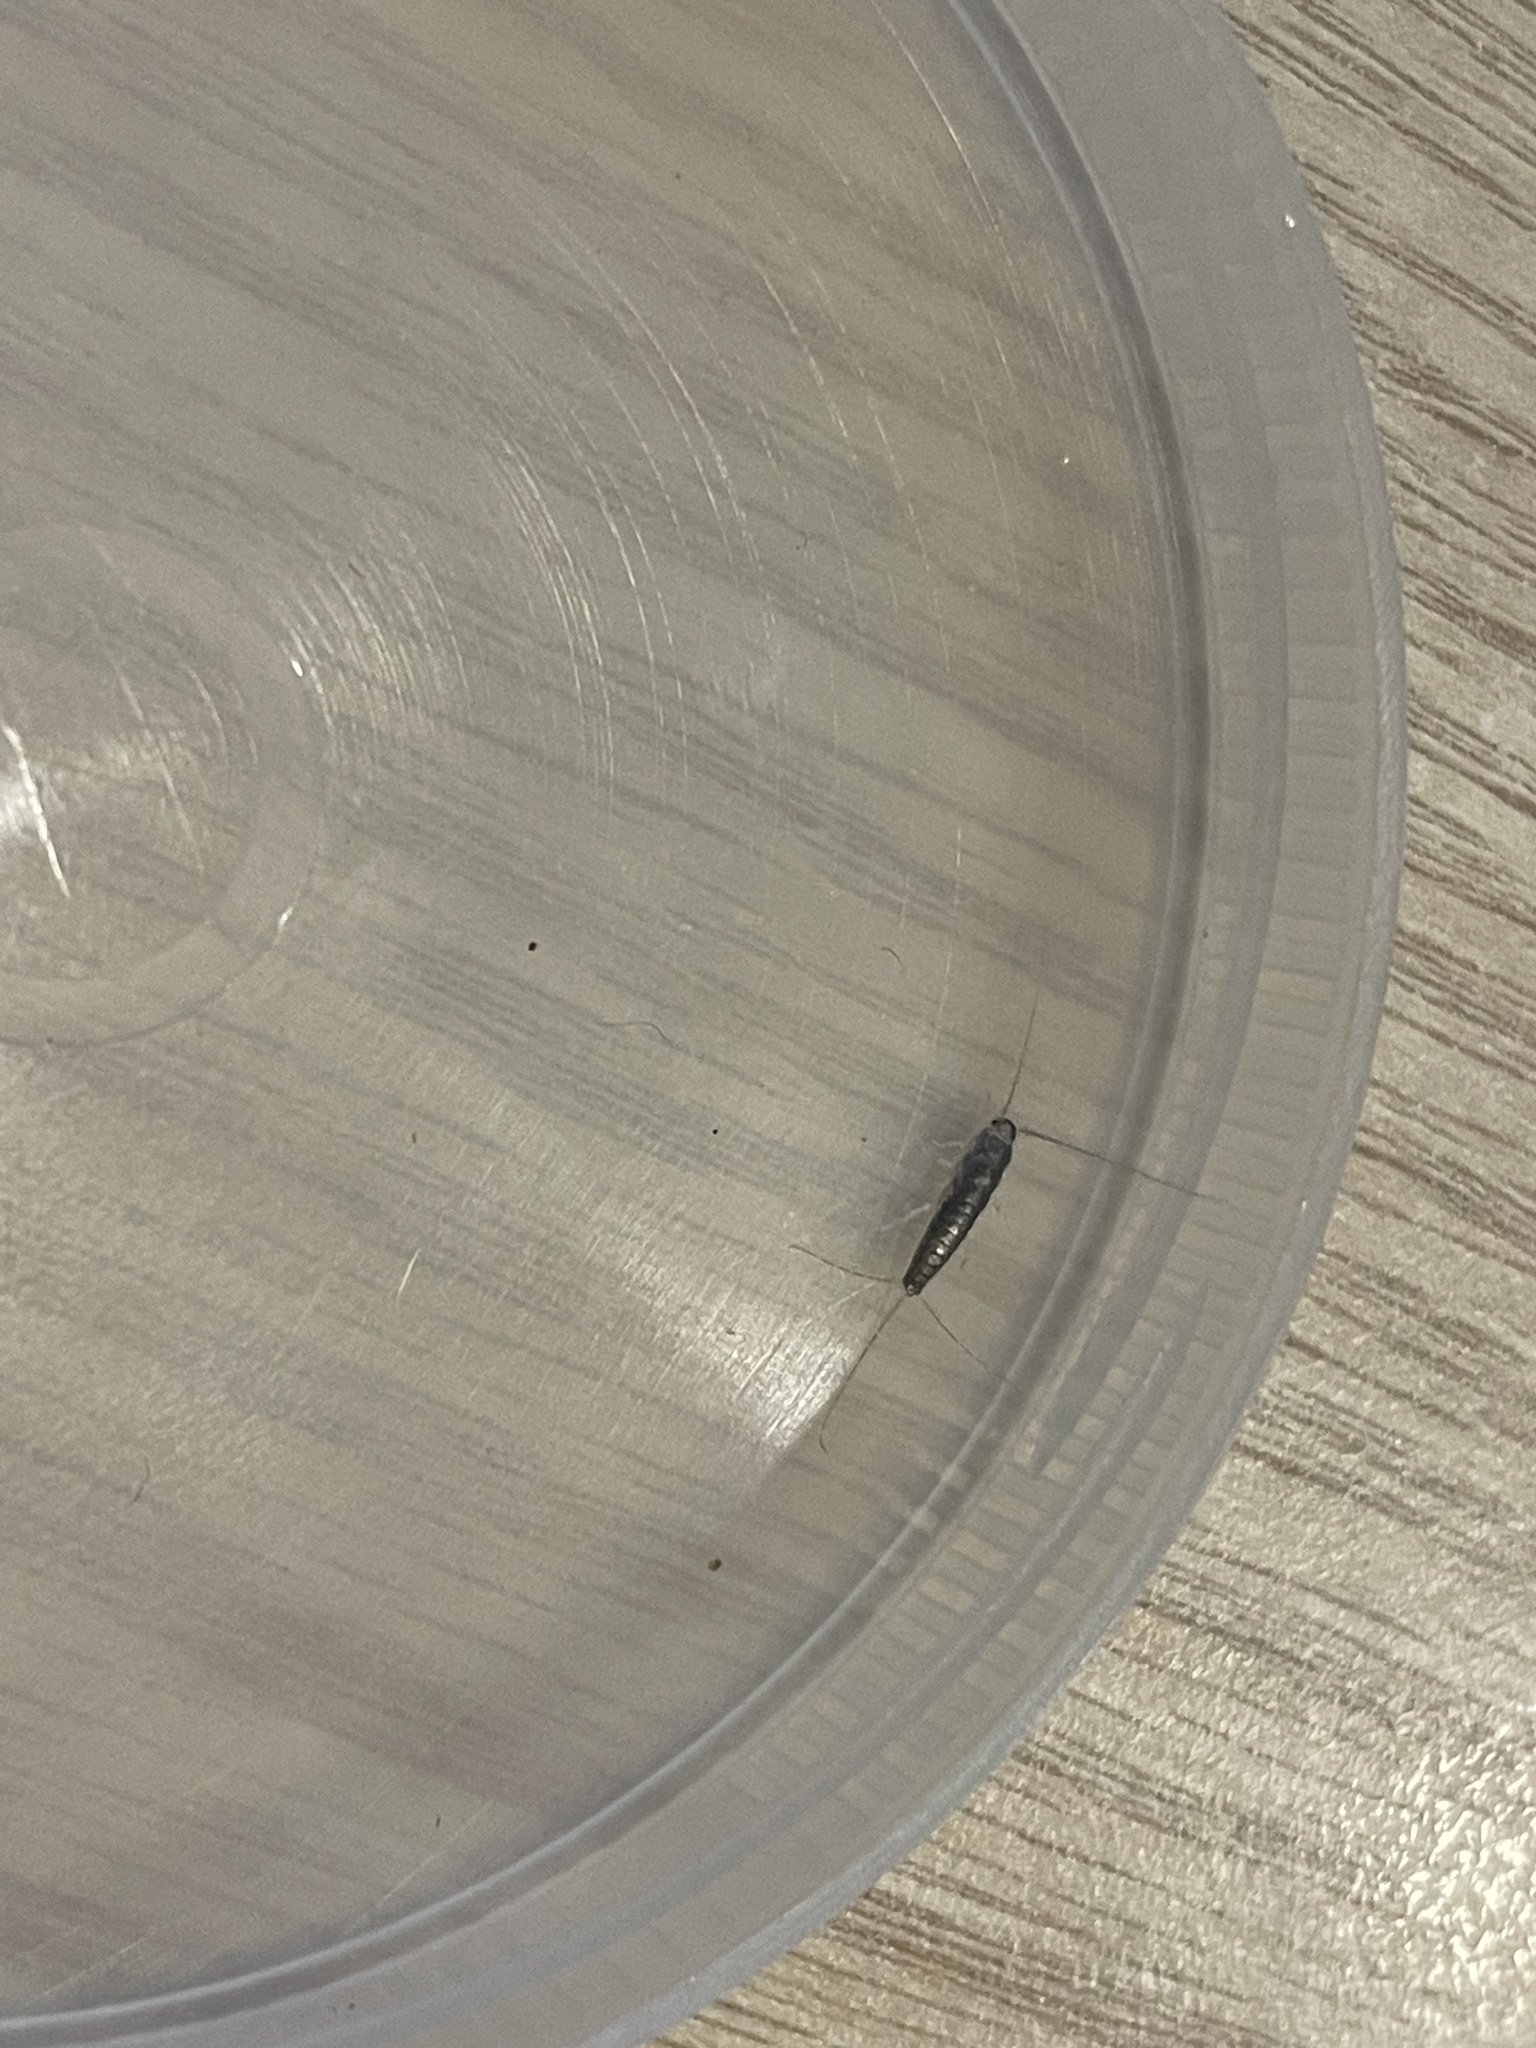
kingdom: Animalia
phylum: Arthropoda
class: Insecta
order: Zygentoma
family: Lepismatidae
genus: Ctenolepisma
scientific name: Ctenolepisma longicaudatum
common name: Silverfish
